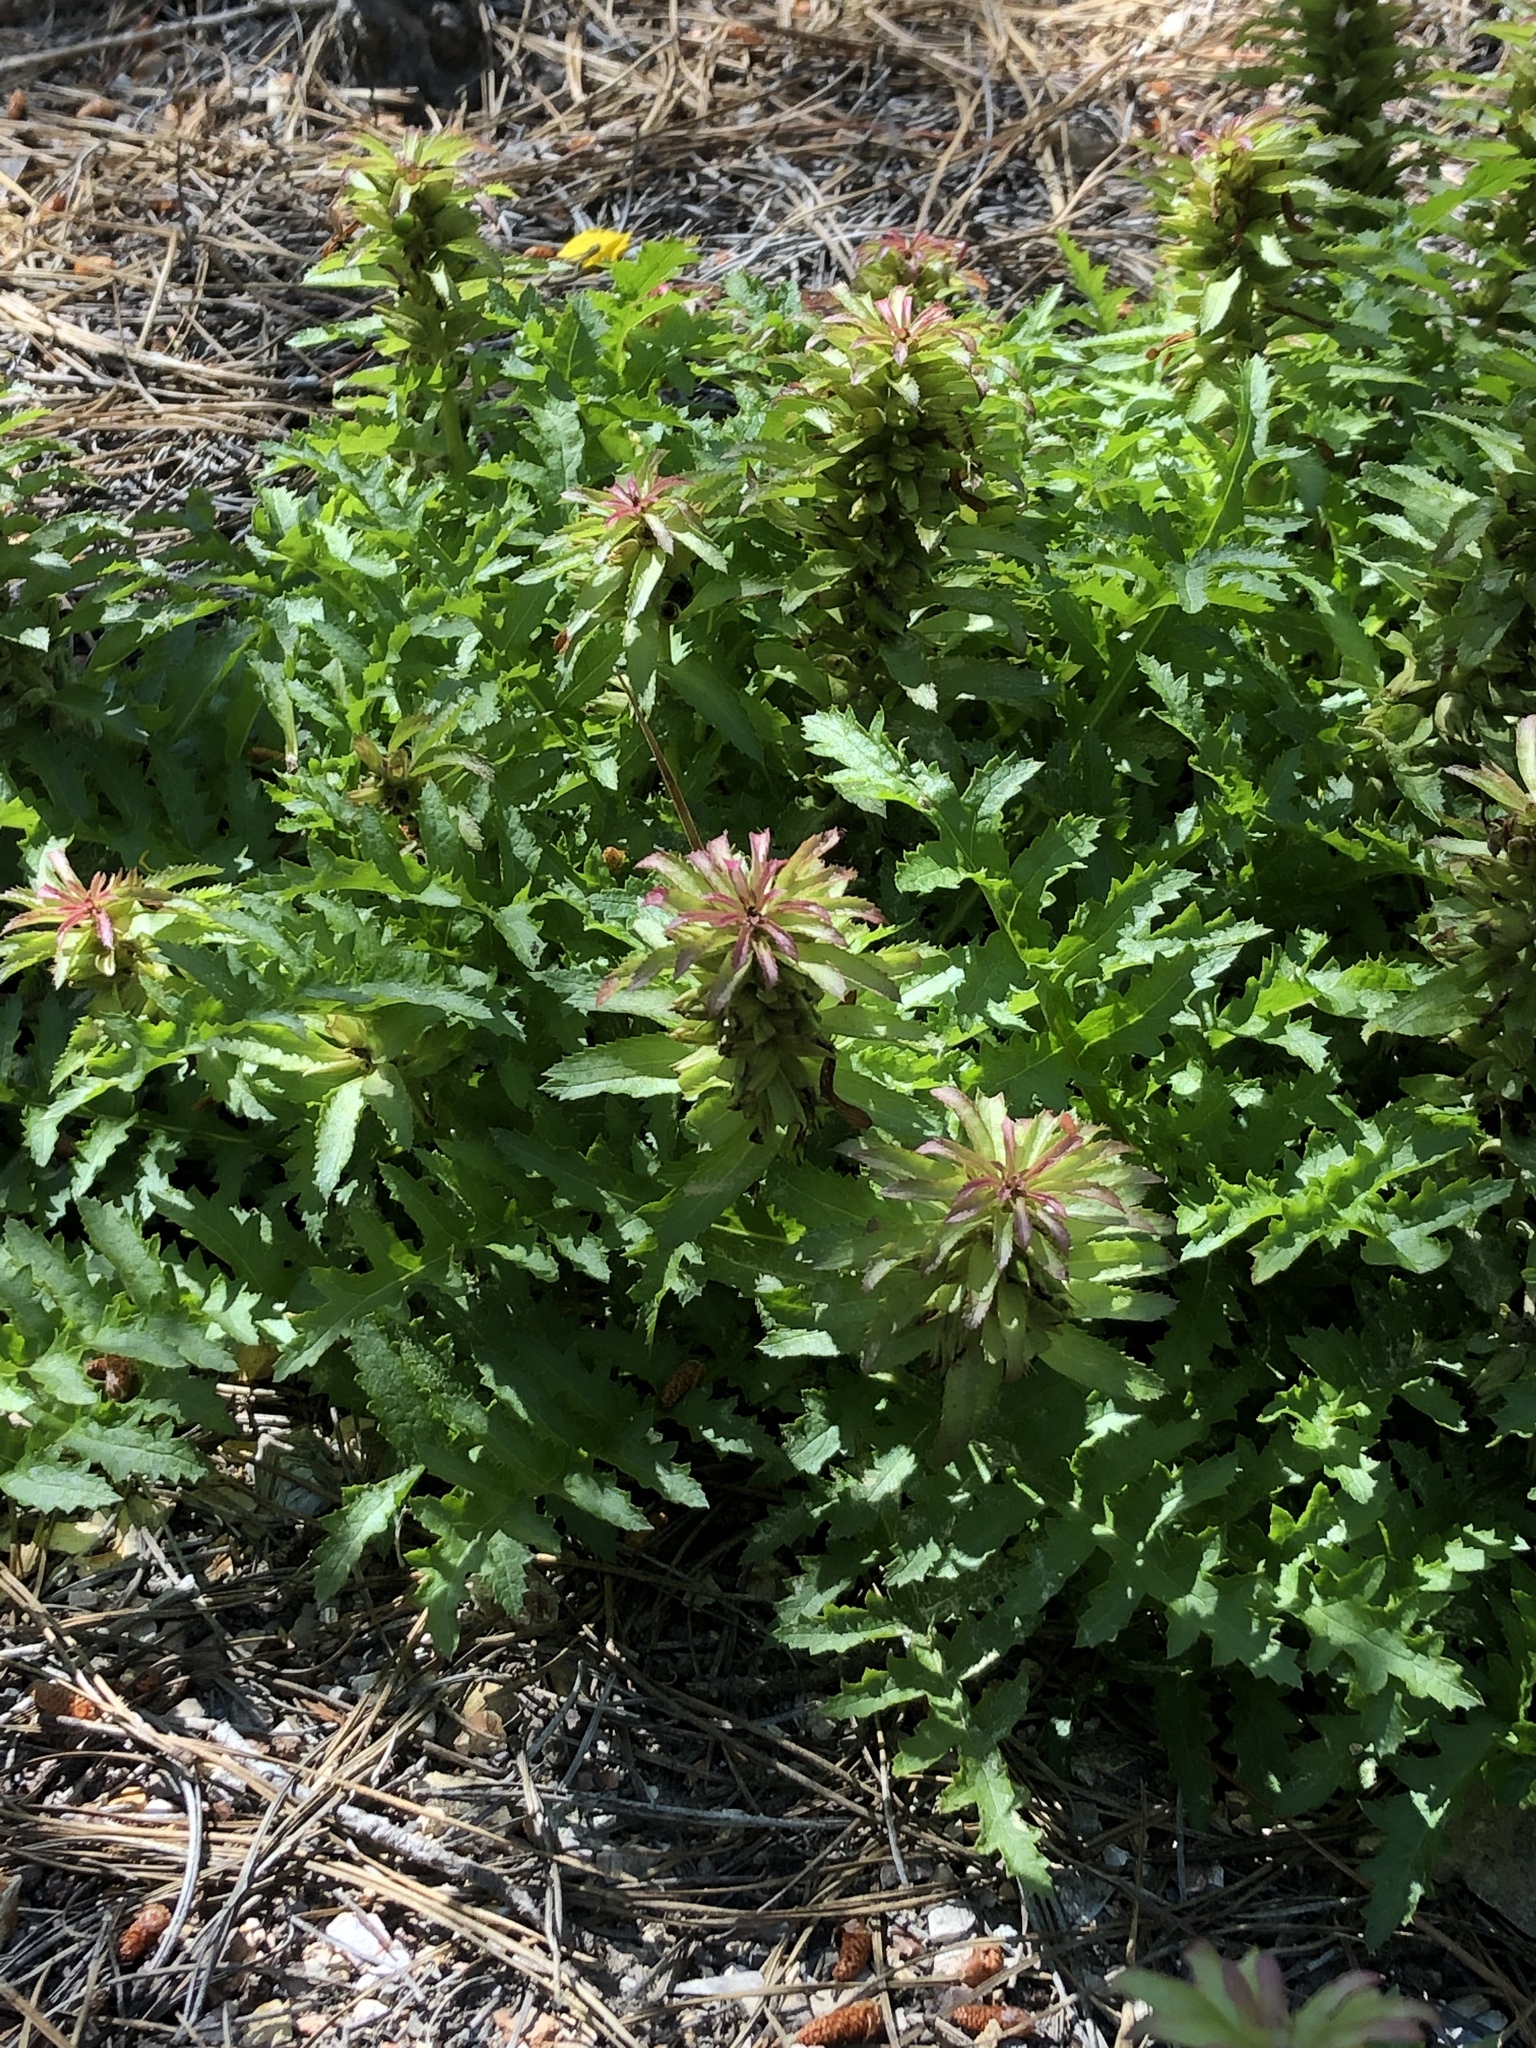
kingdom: Plantae
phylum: Tracheophyta
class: Magnoliopsida
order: Lamiales
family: Orobanchaceae
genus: Pedicularis
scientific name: Pedicularis densiflora
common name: Indian warrior
